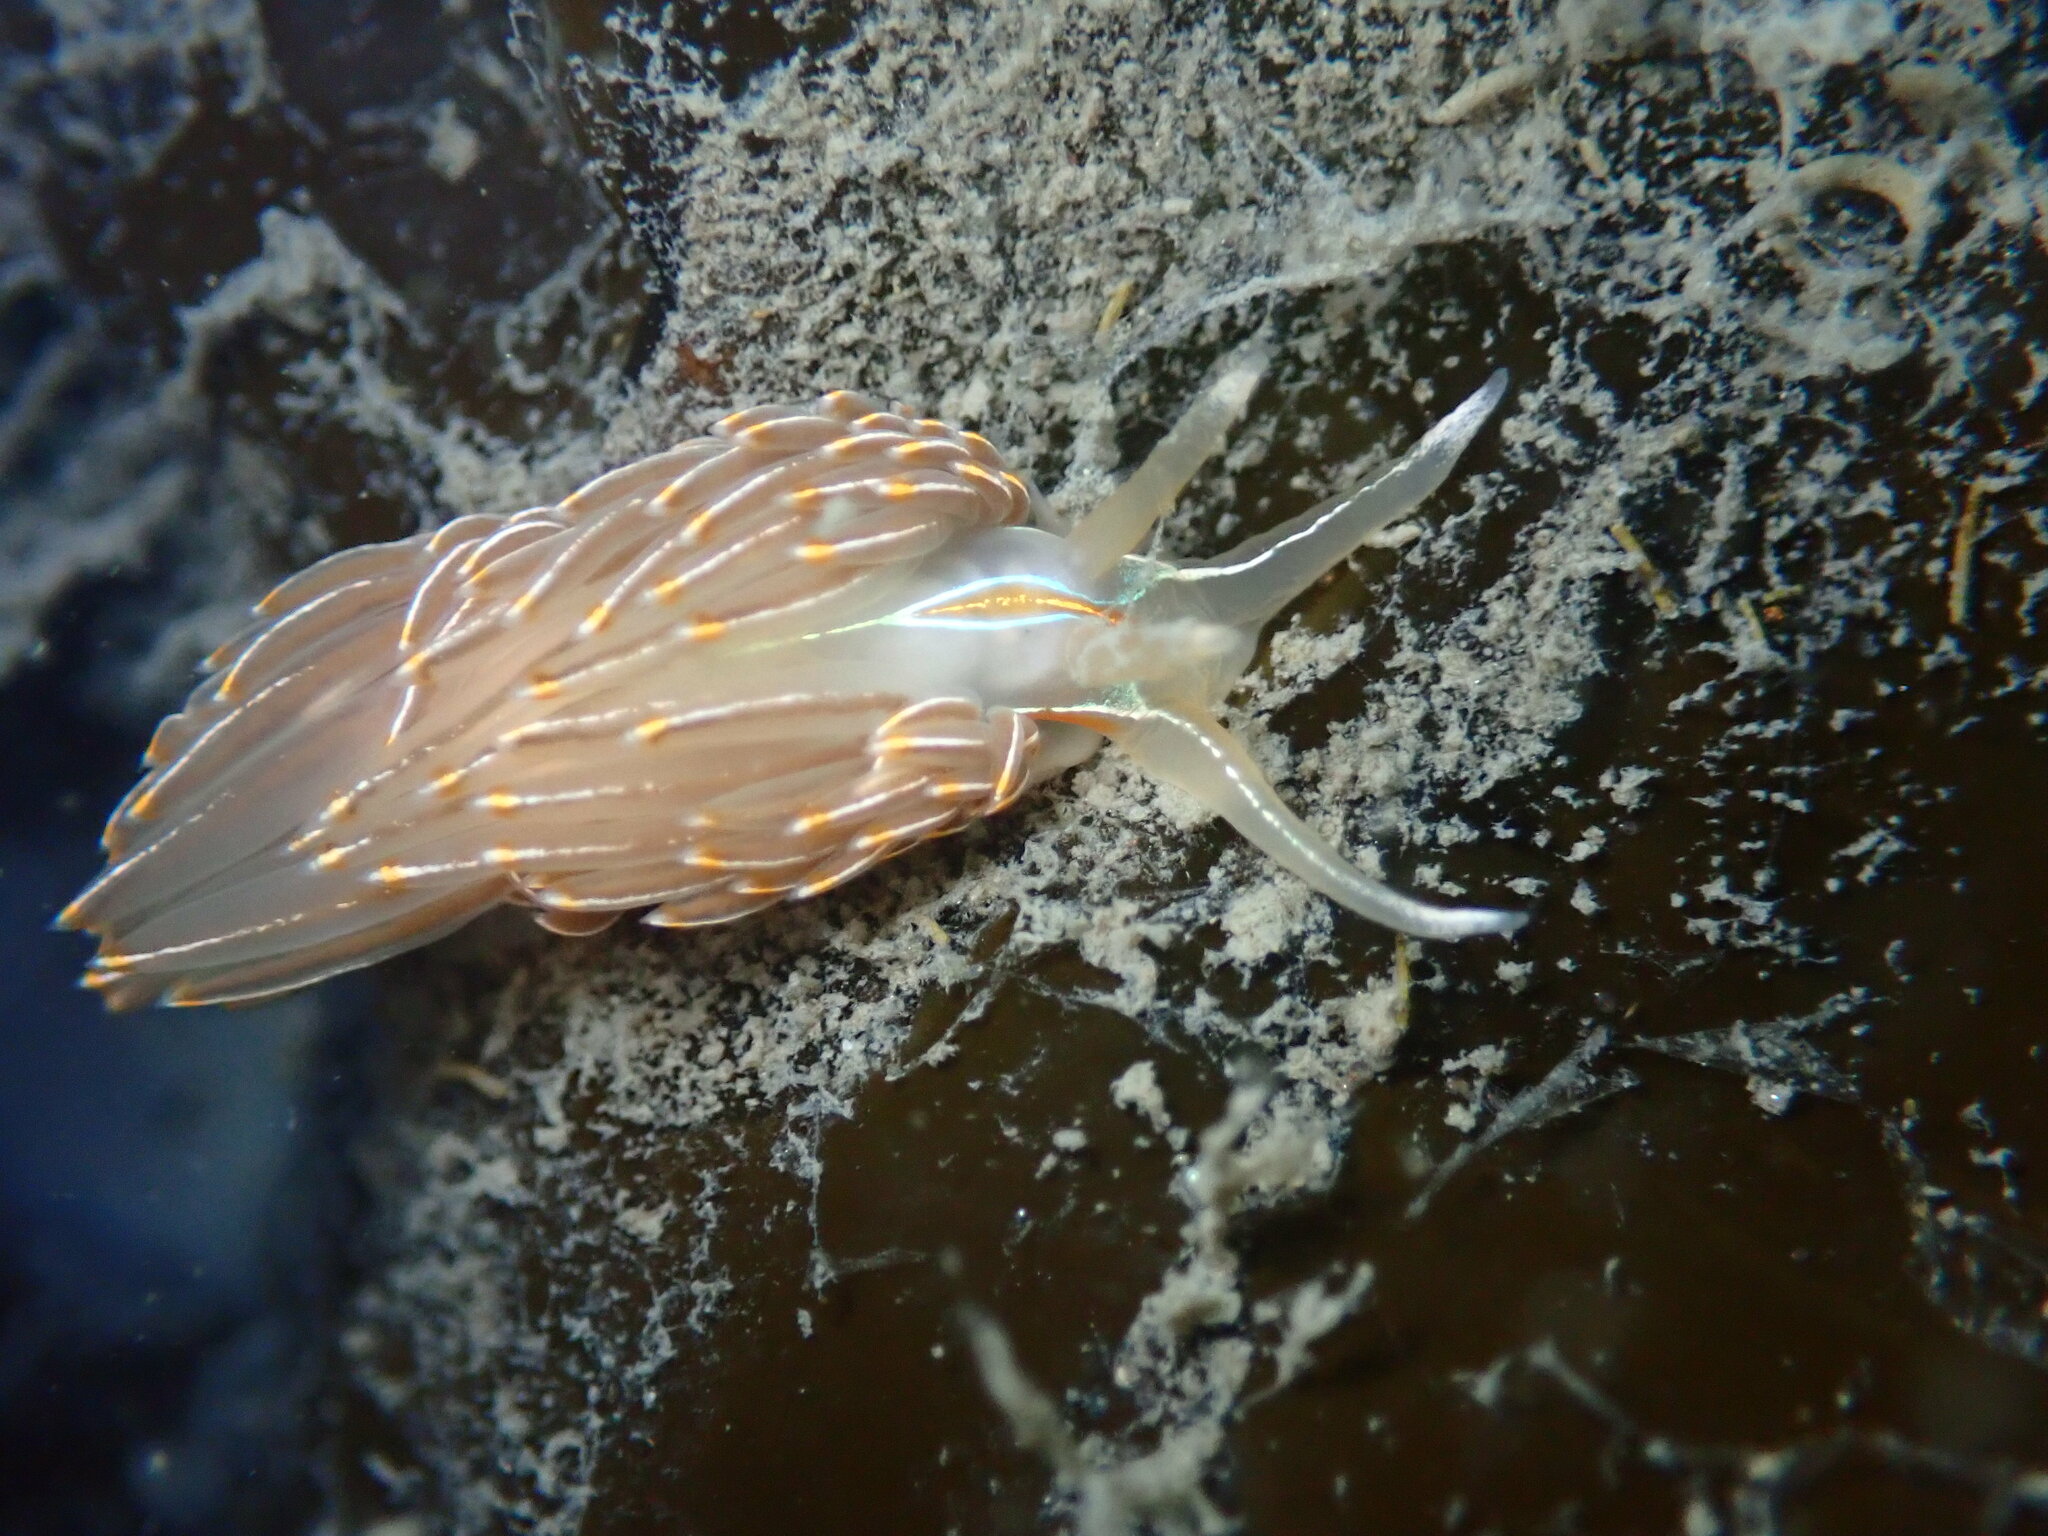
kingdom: Animalia
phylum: Mollusca
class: Gastropoda
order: Nudibranchia
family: Myrrhinidae
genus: Hermissenda
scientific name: Hermissenda crassicornis
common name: Hermissenda
